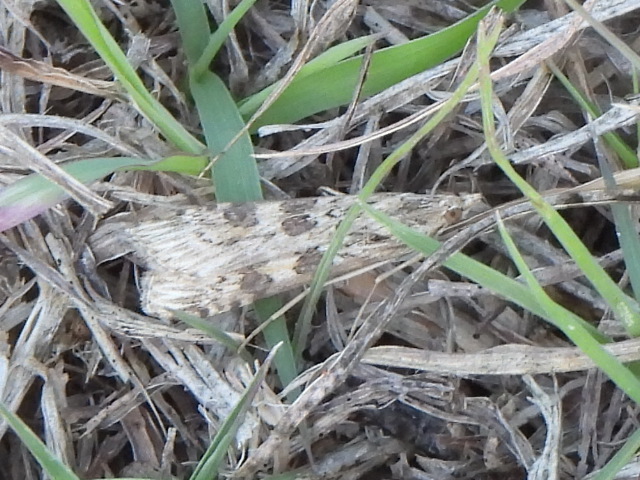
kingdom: Animalia
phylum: Arthropoda
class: Insecta
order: Lepidoptera
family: Crambidae
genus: Nomophila
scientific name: Nomophila nearctica
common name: American rush veneer
